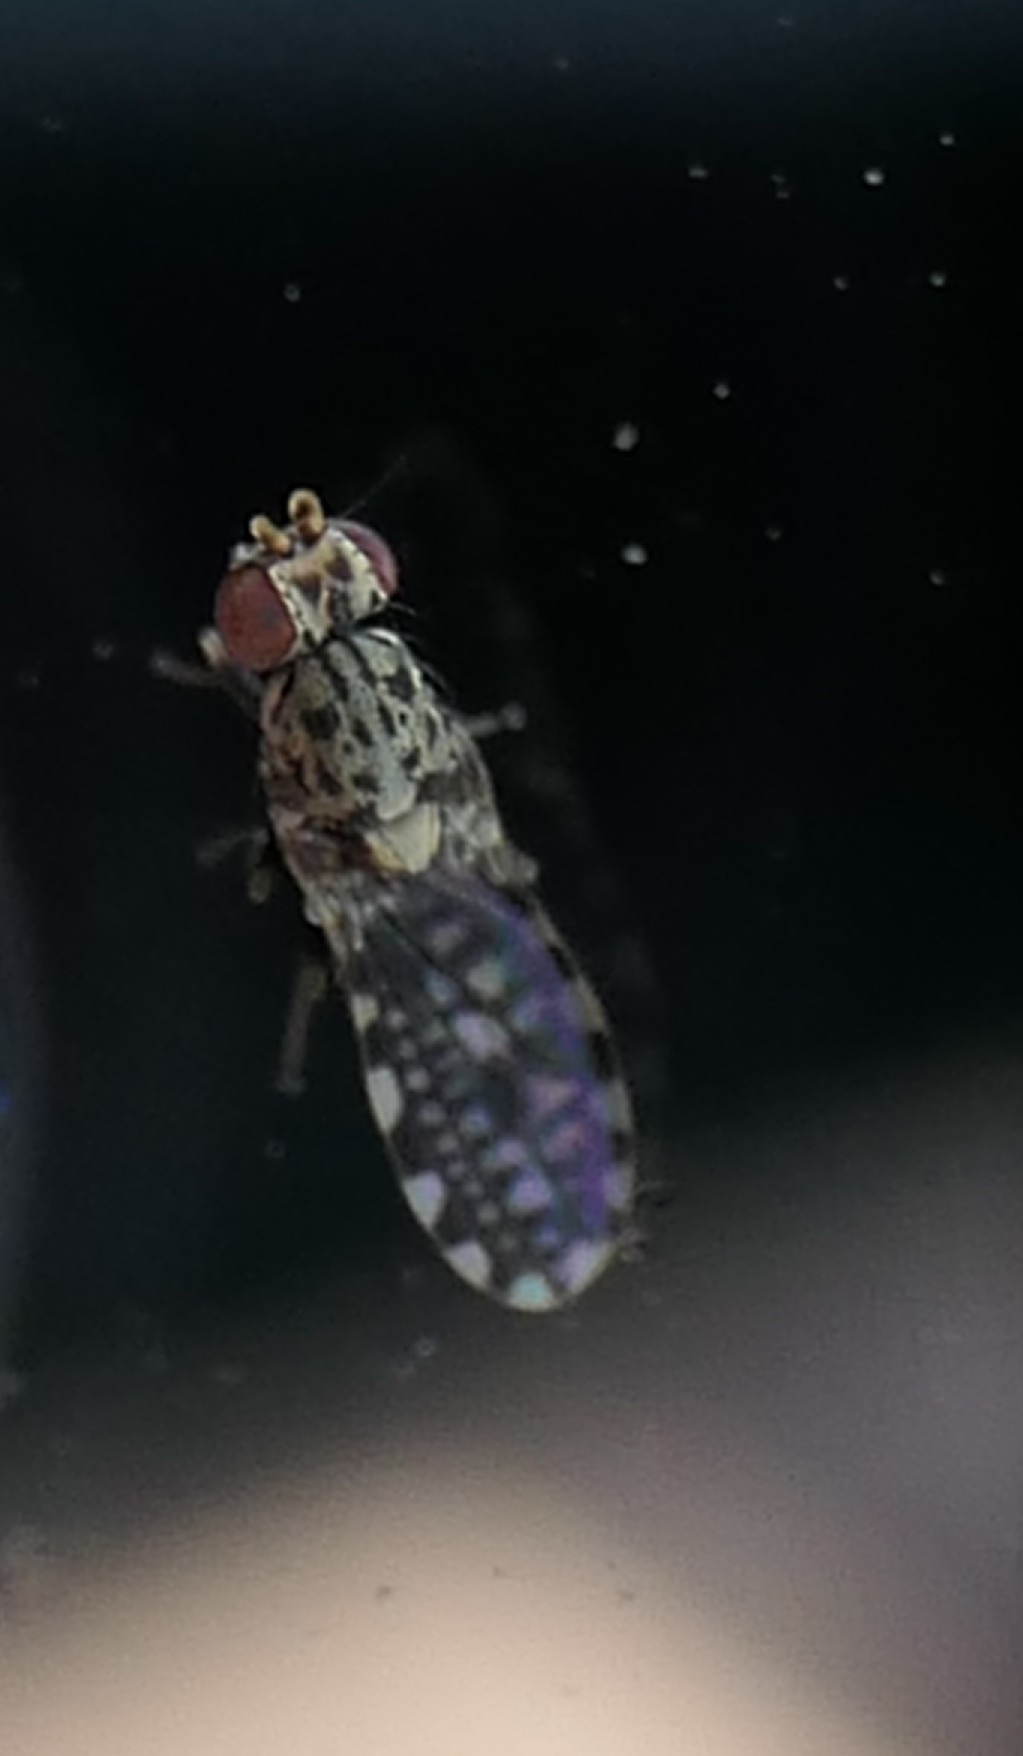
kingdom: Animalia
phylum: Arthropoda
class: Insecta
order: Diptera
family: Heleomyzidae
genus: Xeneura
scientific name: Xeneura picata
